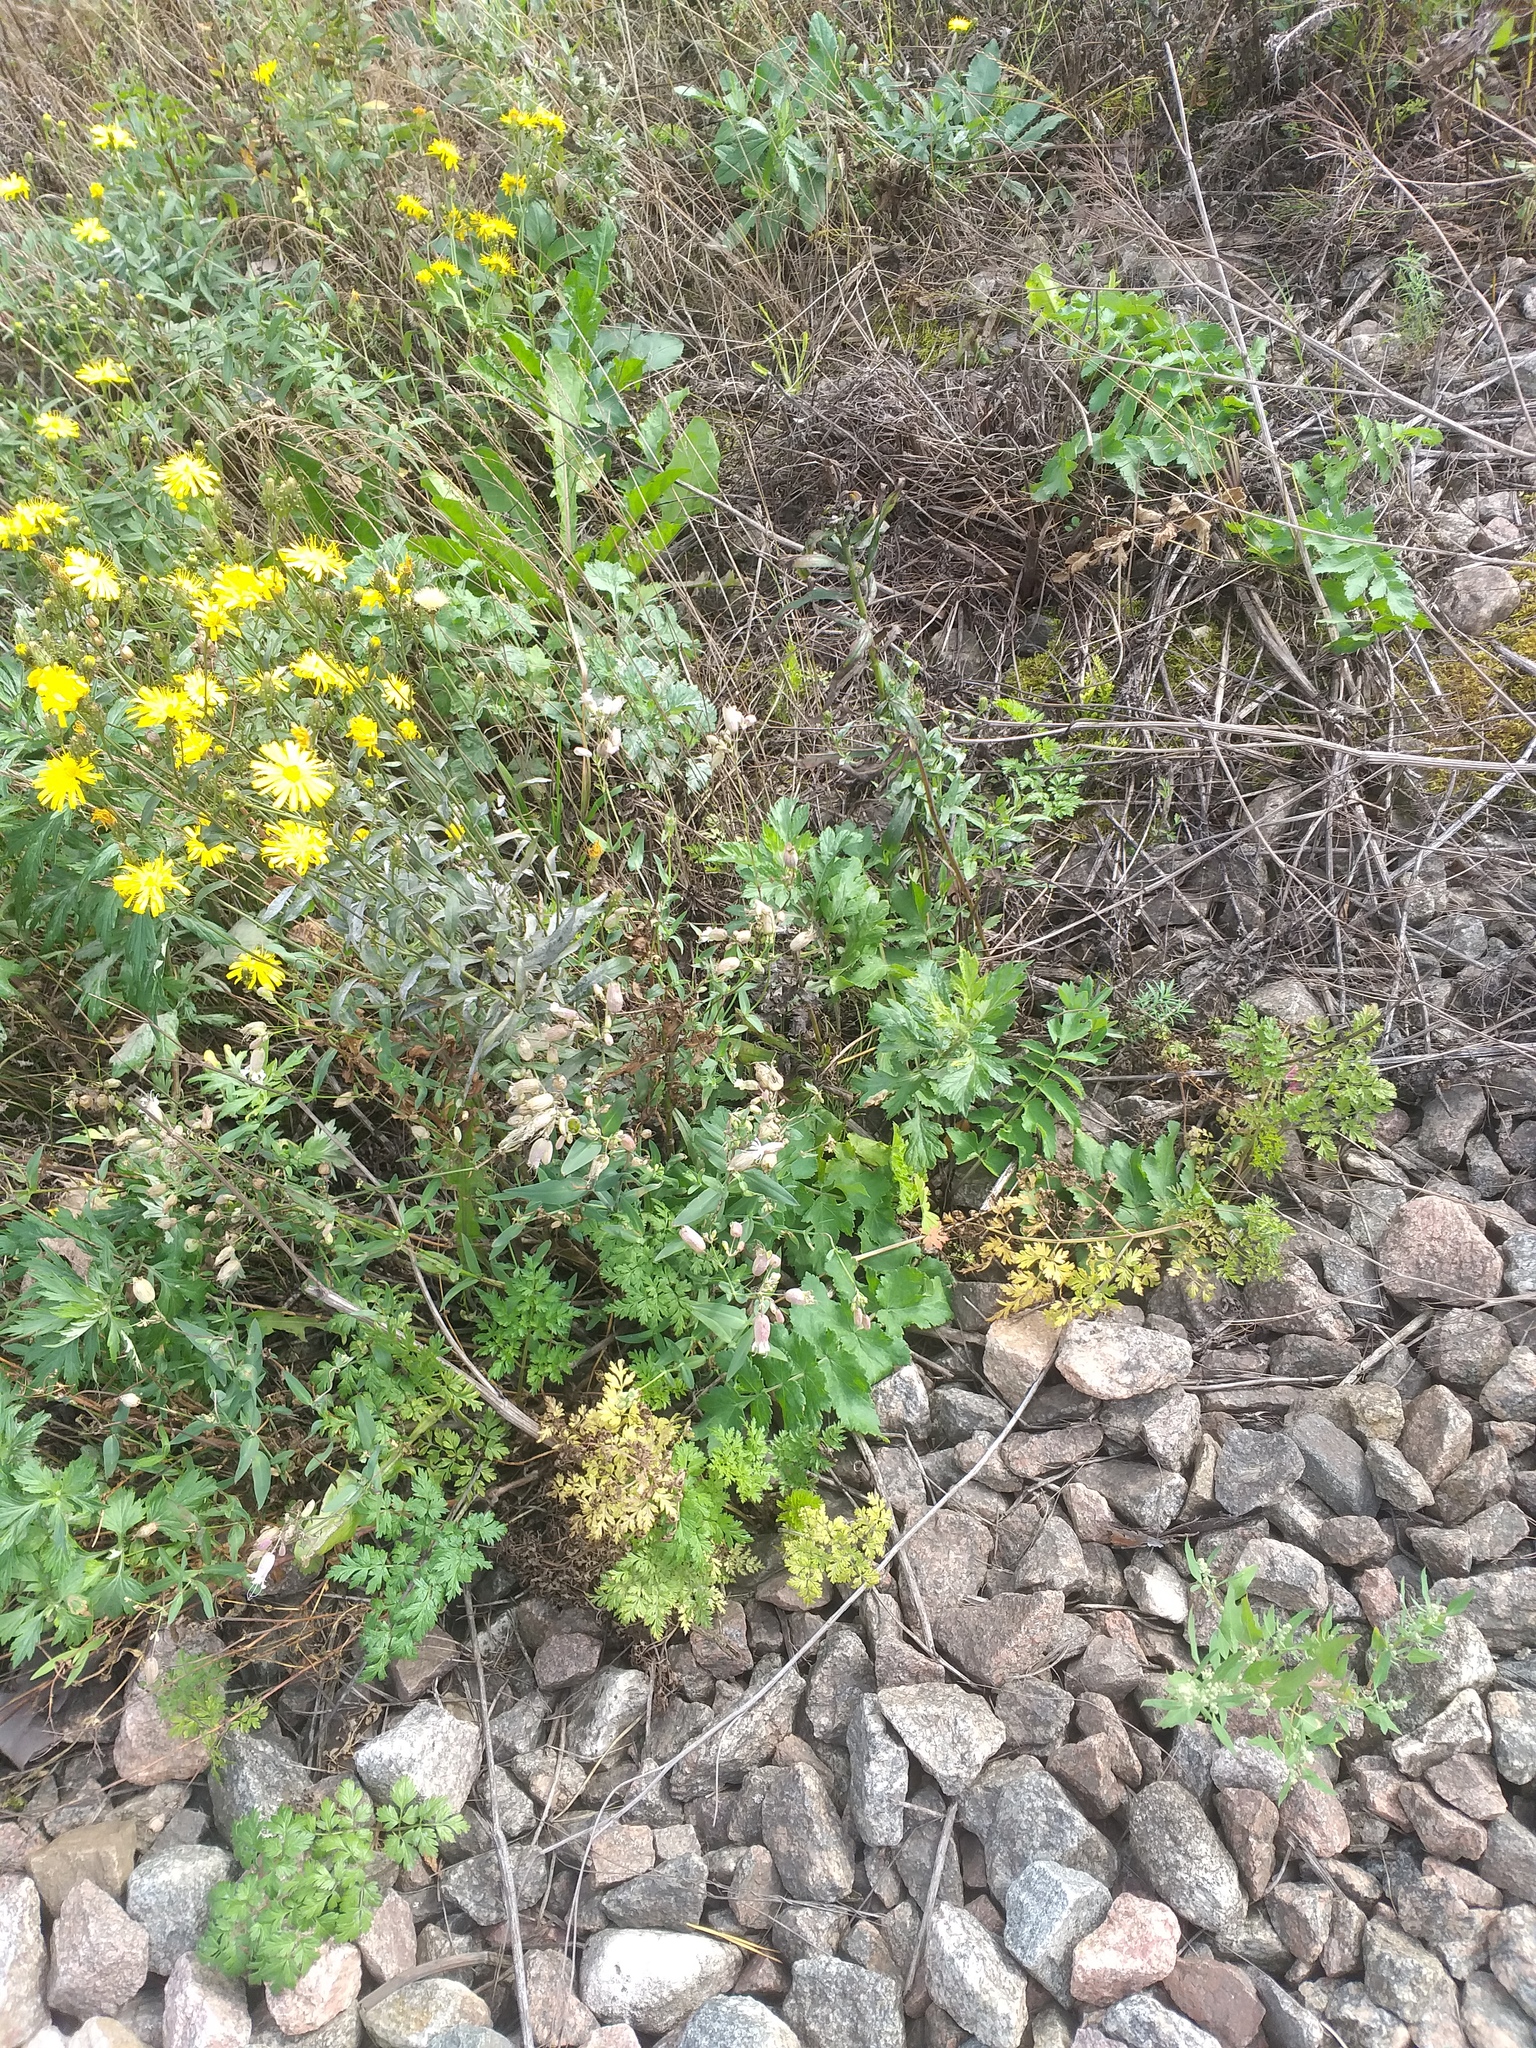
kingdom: Plantae
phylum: Tracheophyta
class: Magnoliopsida
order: Caryophyllales
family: Caryophyllaceae
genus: Silene
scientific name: Silene vulgaris
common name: Bladder campion
